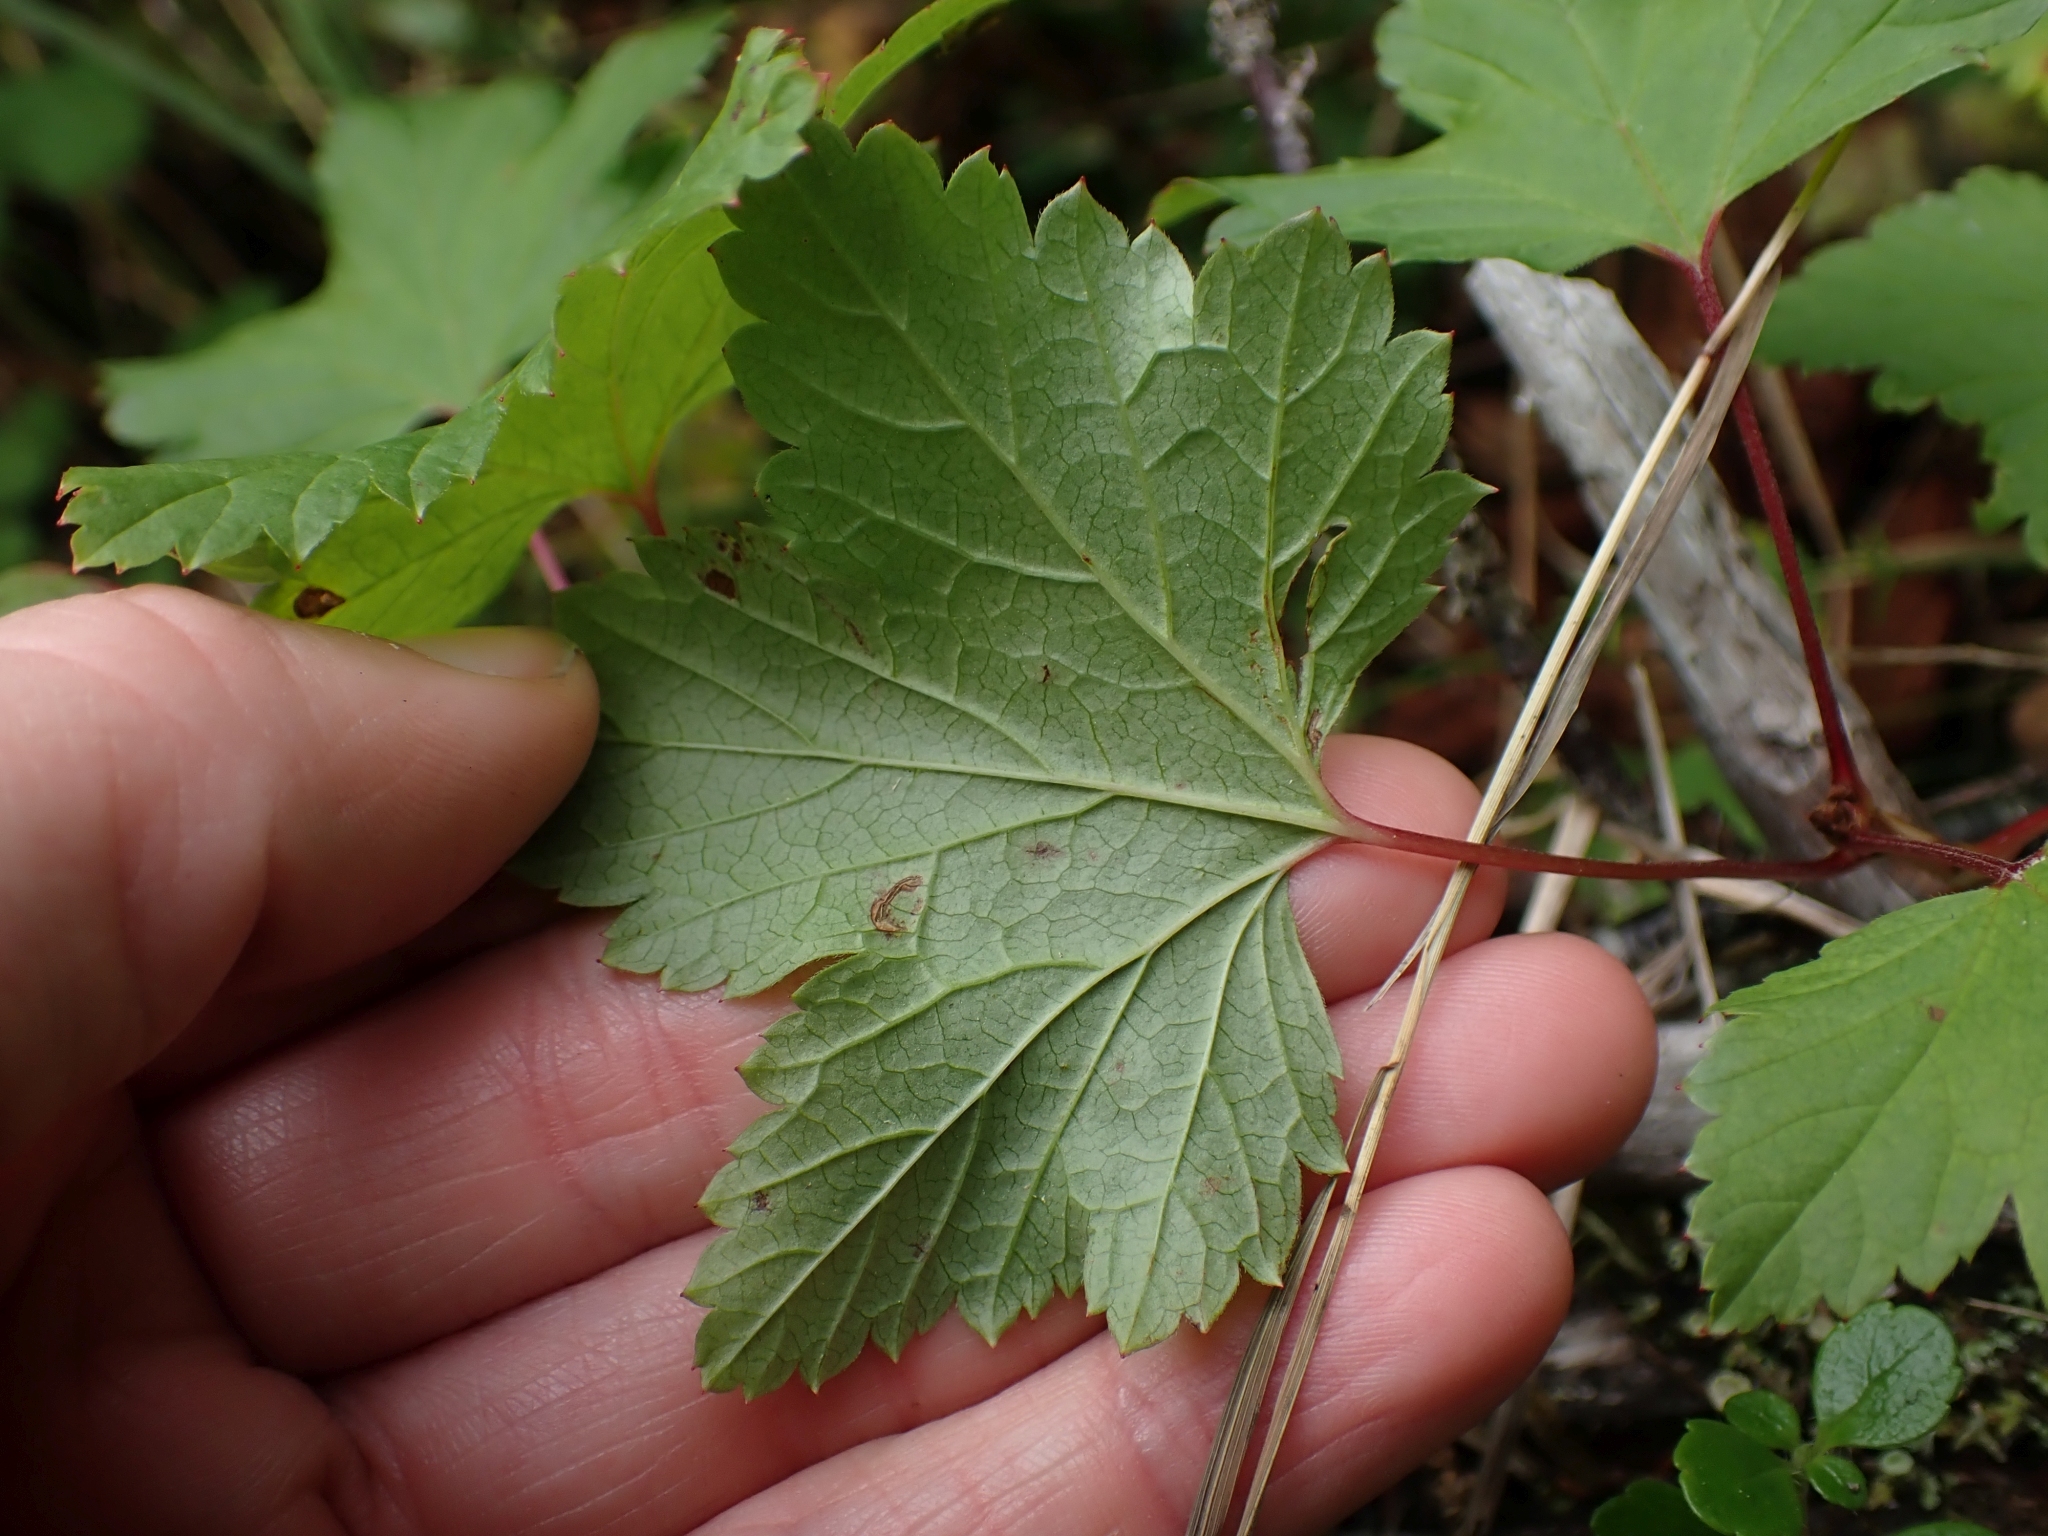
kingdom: Plantae
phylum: Tracheophyta
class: Magnoliopsida
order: Saxifragales
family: Grossulariaceae
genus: Ribes
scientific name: Ribes triste
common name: Swamp red currant
